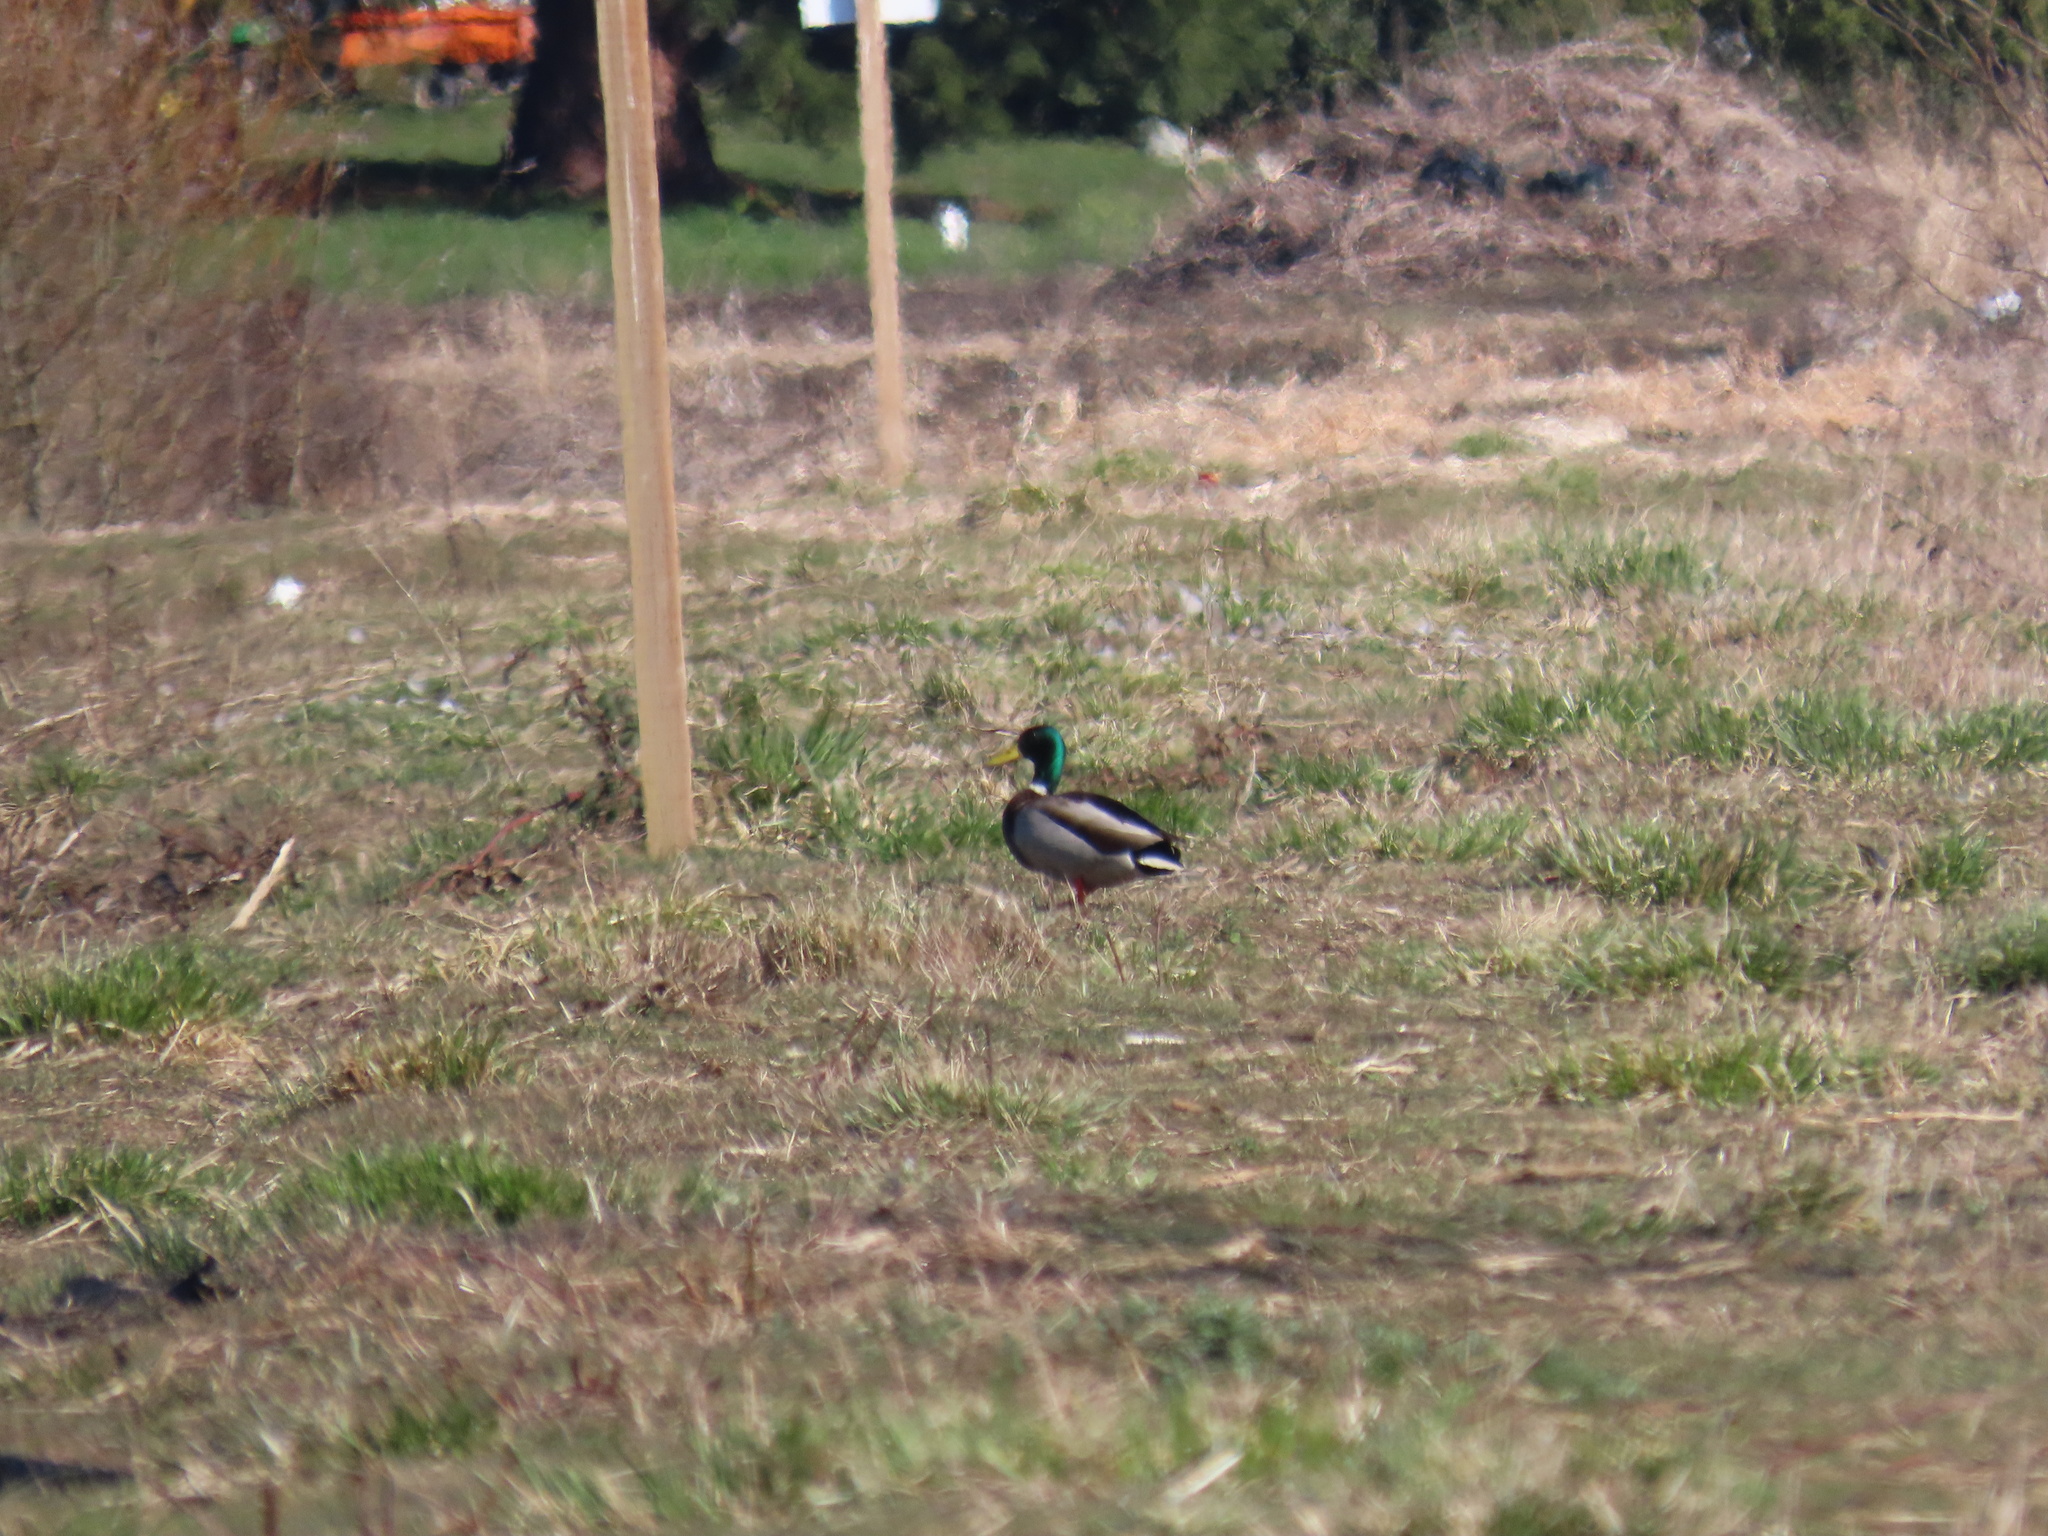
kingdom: Animalia
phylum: Chordata
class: Aves
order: Anseriformes
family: Anatidae
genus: Anas
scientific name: Anas platyrhynchos
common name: Mallard
